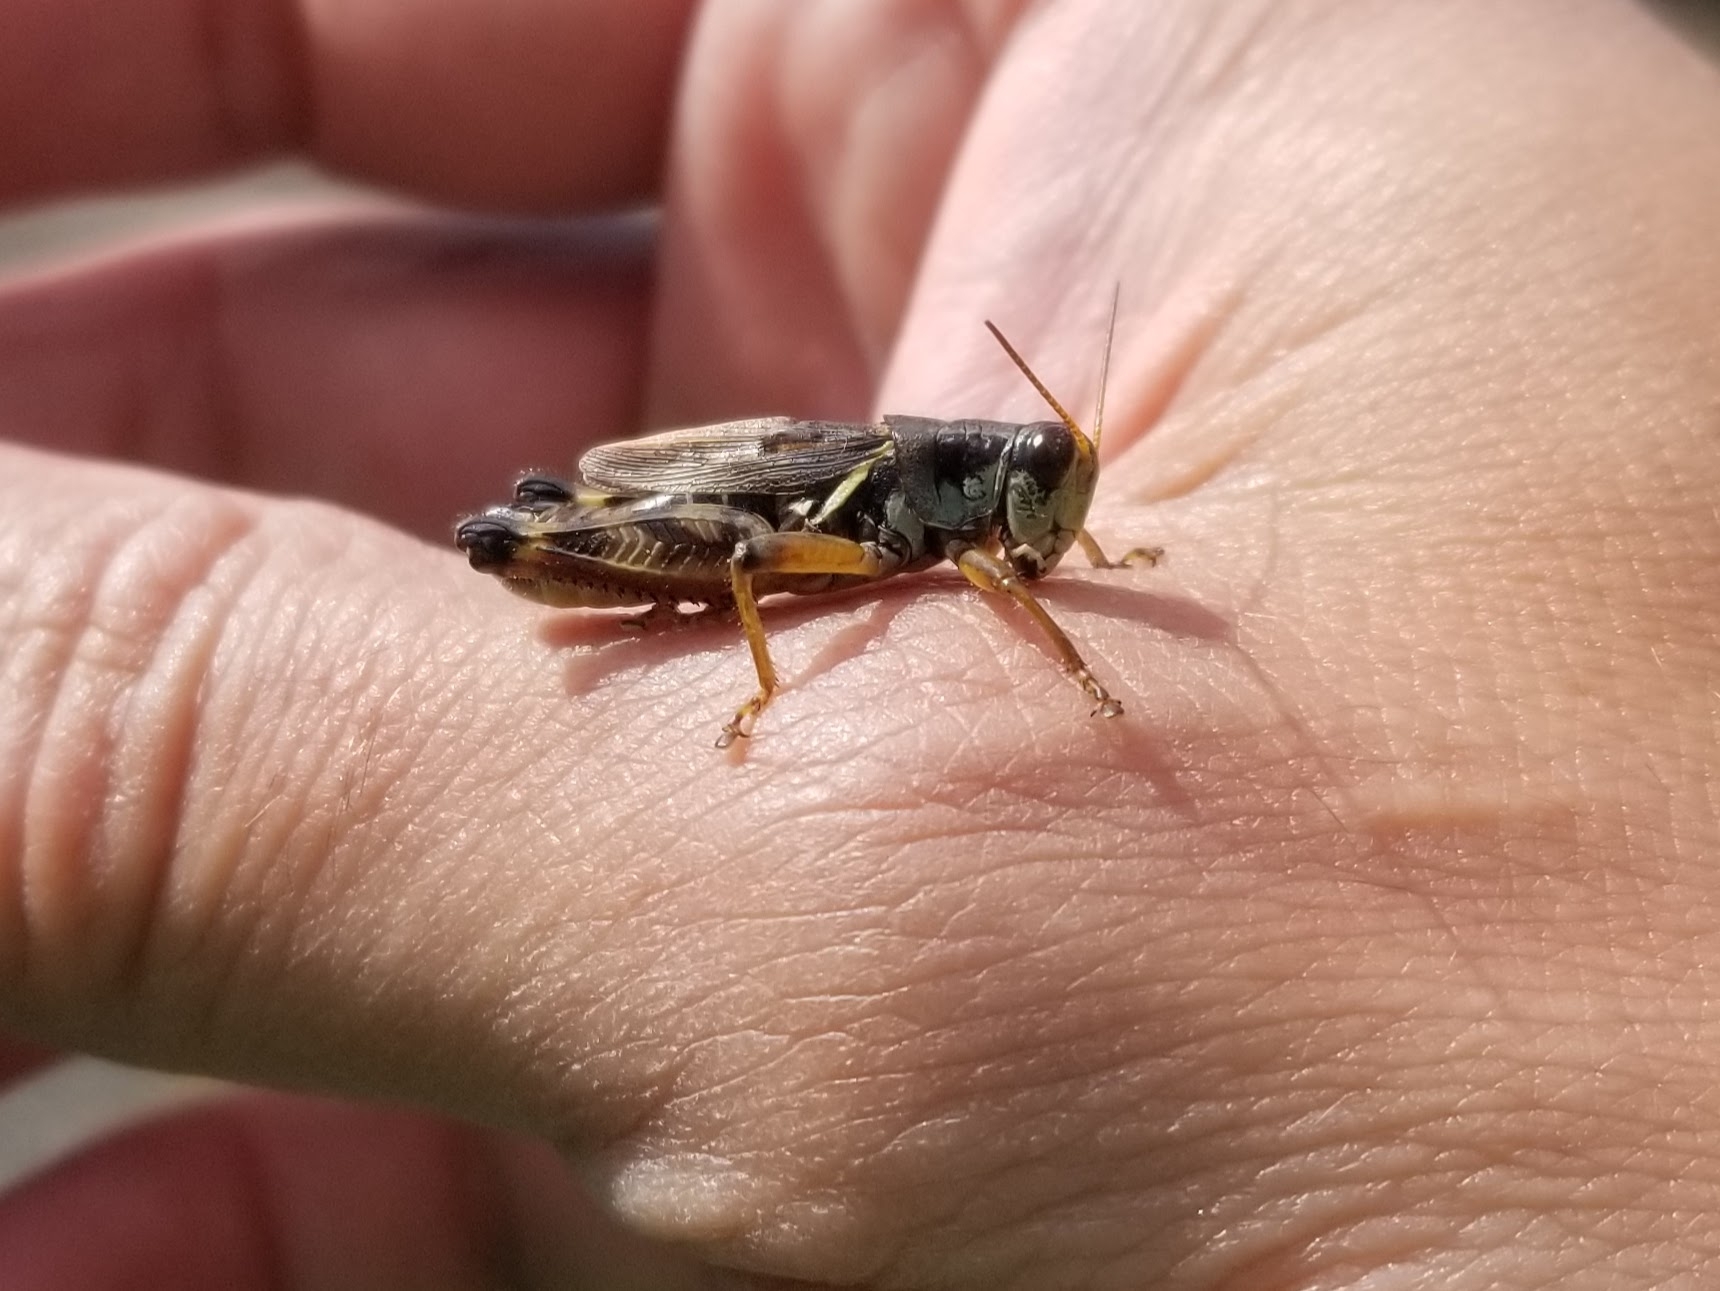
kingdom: Animalia
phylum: Arthropoda
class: Insecta
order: Orthoptera
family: Acrididae
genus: Melanoplus
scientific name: Melanoplus fasciatus
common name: Huckleberry locust
